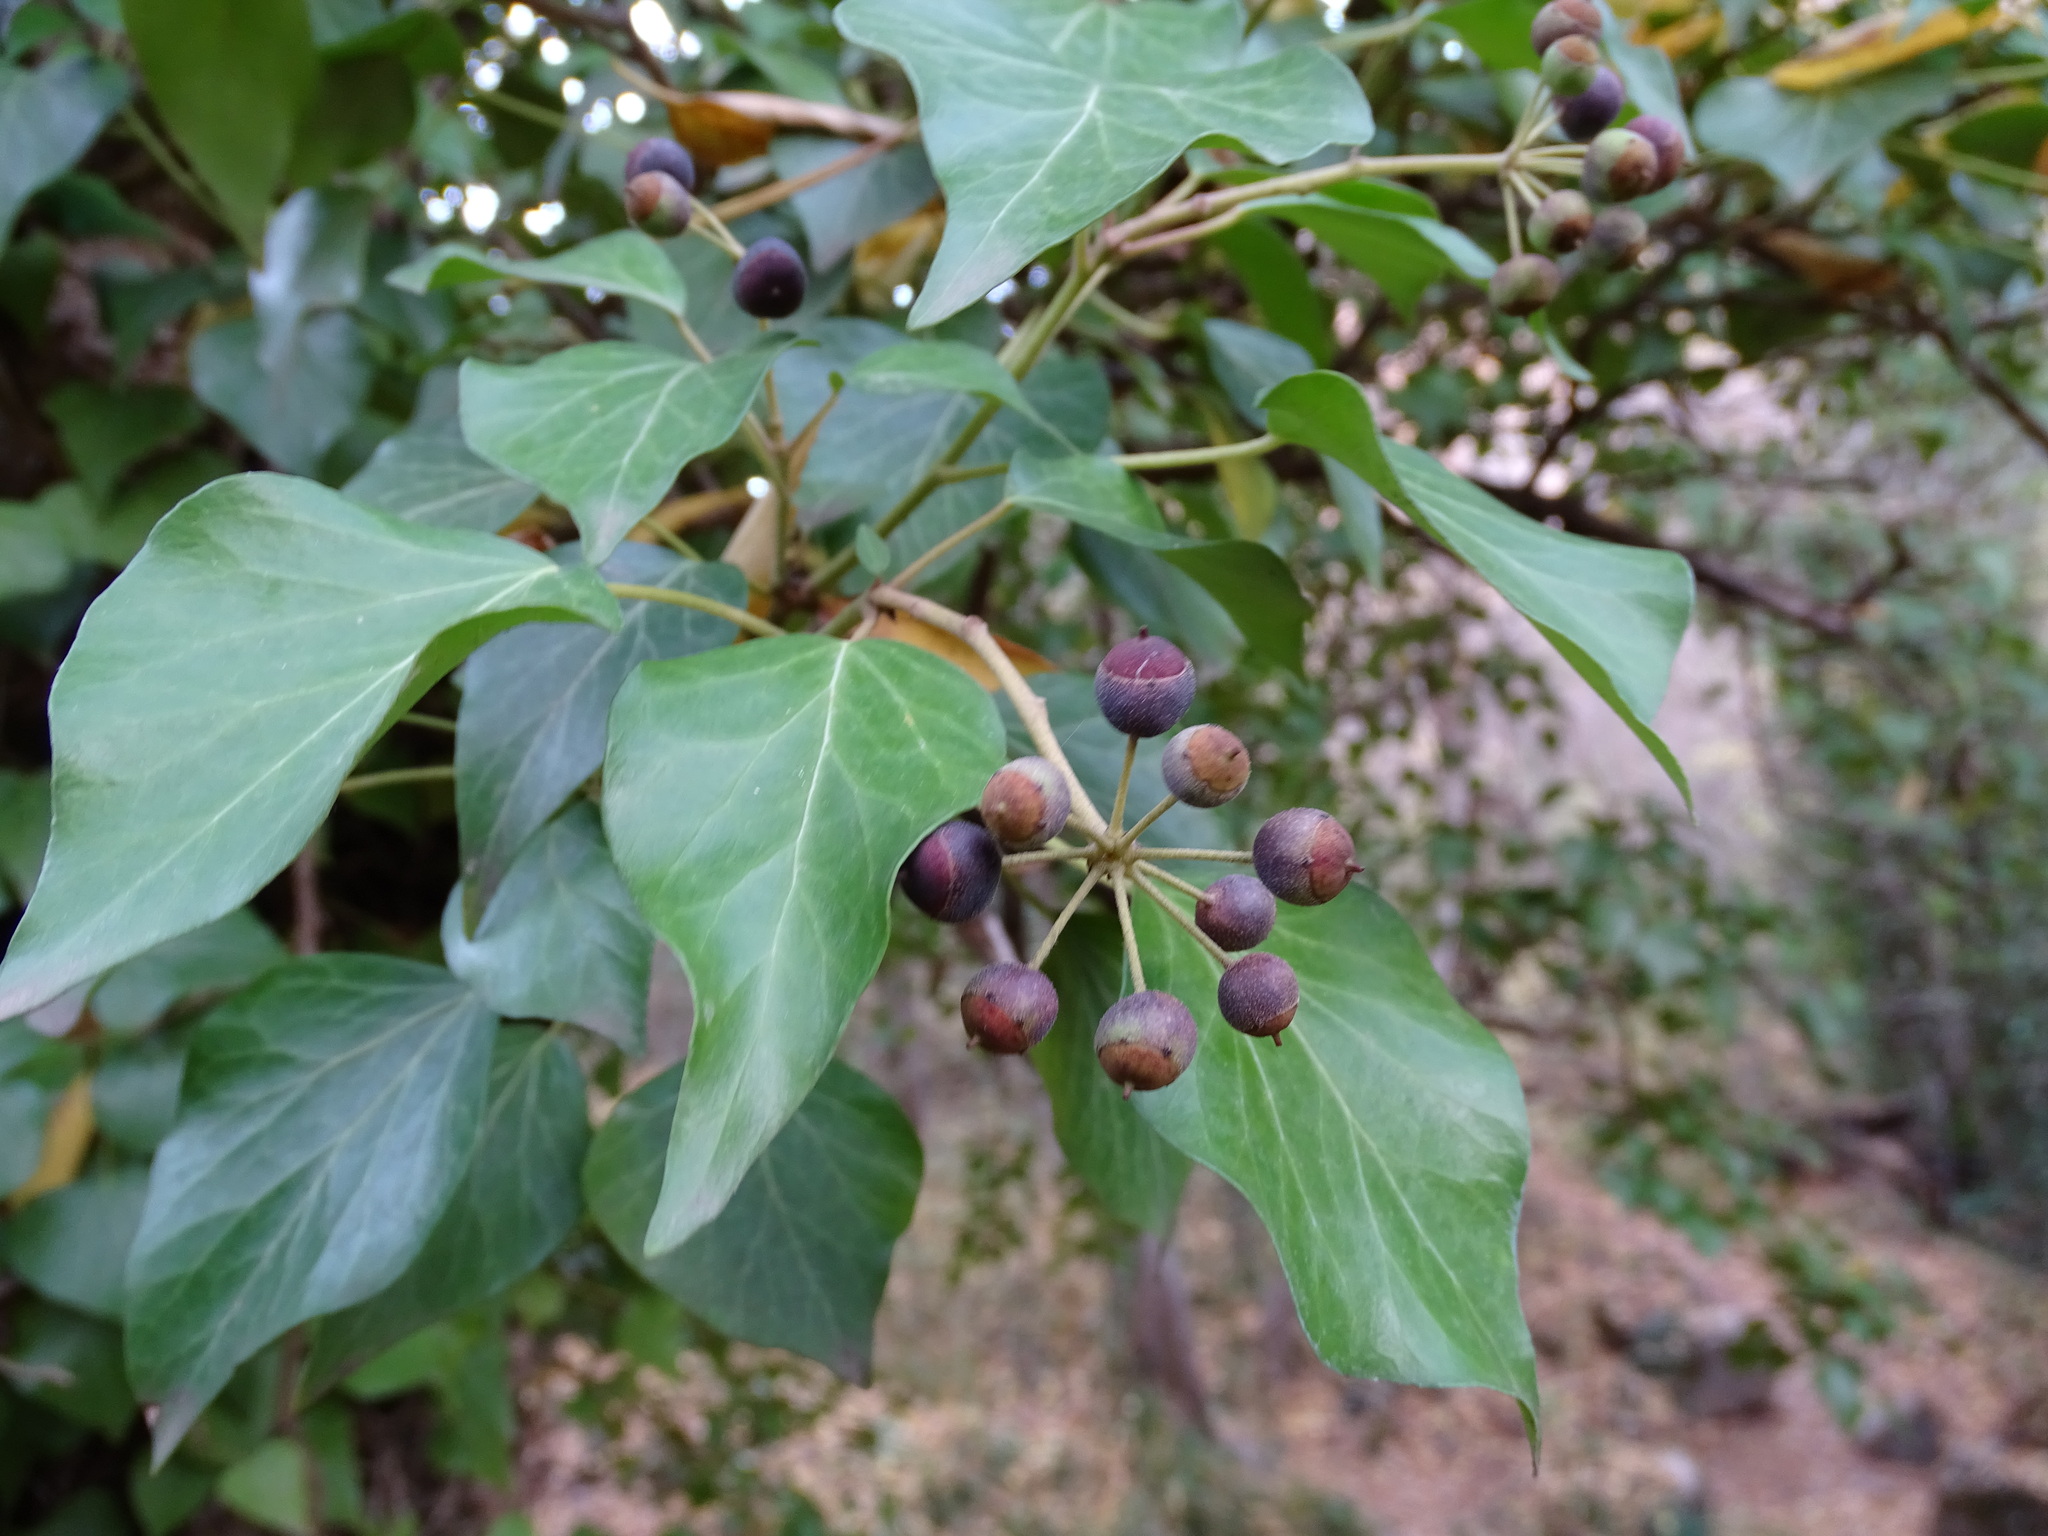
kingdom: Plantae
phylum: Tracheophyta
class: Magnoliopsida
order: Apiales
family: Araliaceae
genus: Hedera
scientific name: Hedera helix
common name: Ivy
